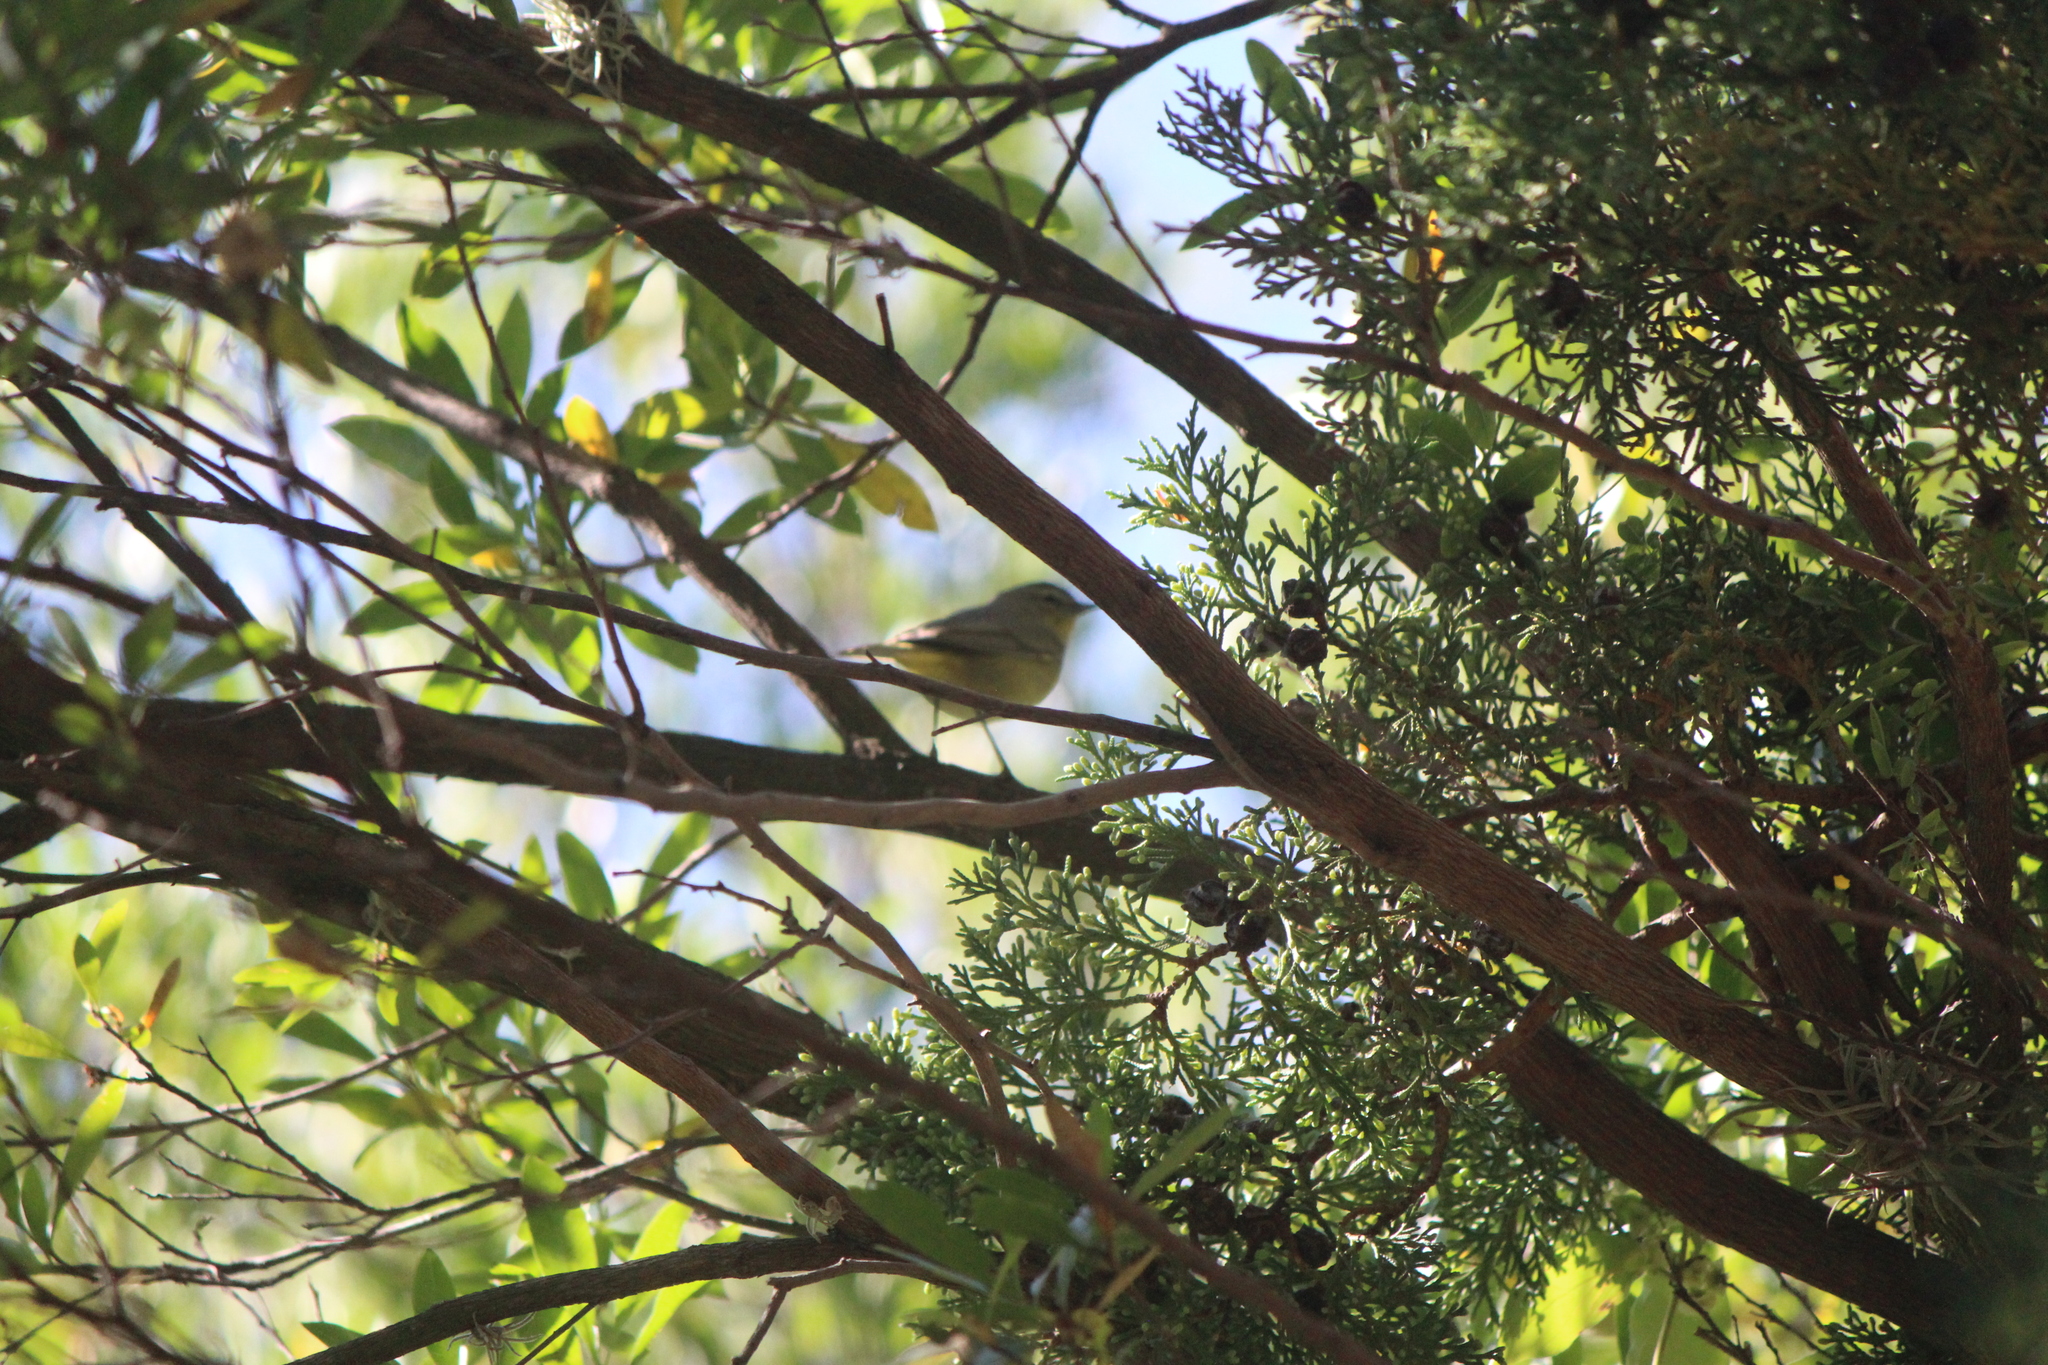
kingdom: Animalia
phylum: Chordata
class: Aves
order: Passeriformes
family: Parulidae
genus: Leiothlypis
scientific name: Leiothlypis celata
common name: Orange-crowned warbler
